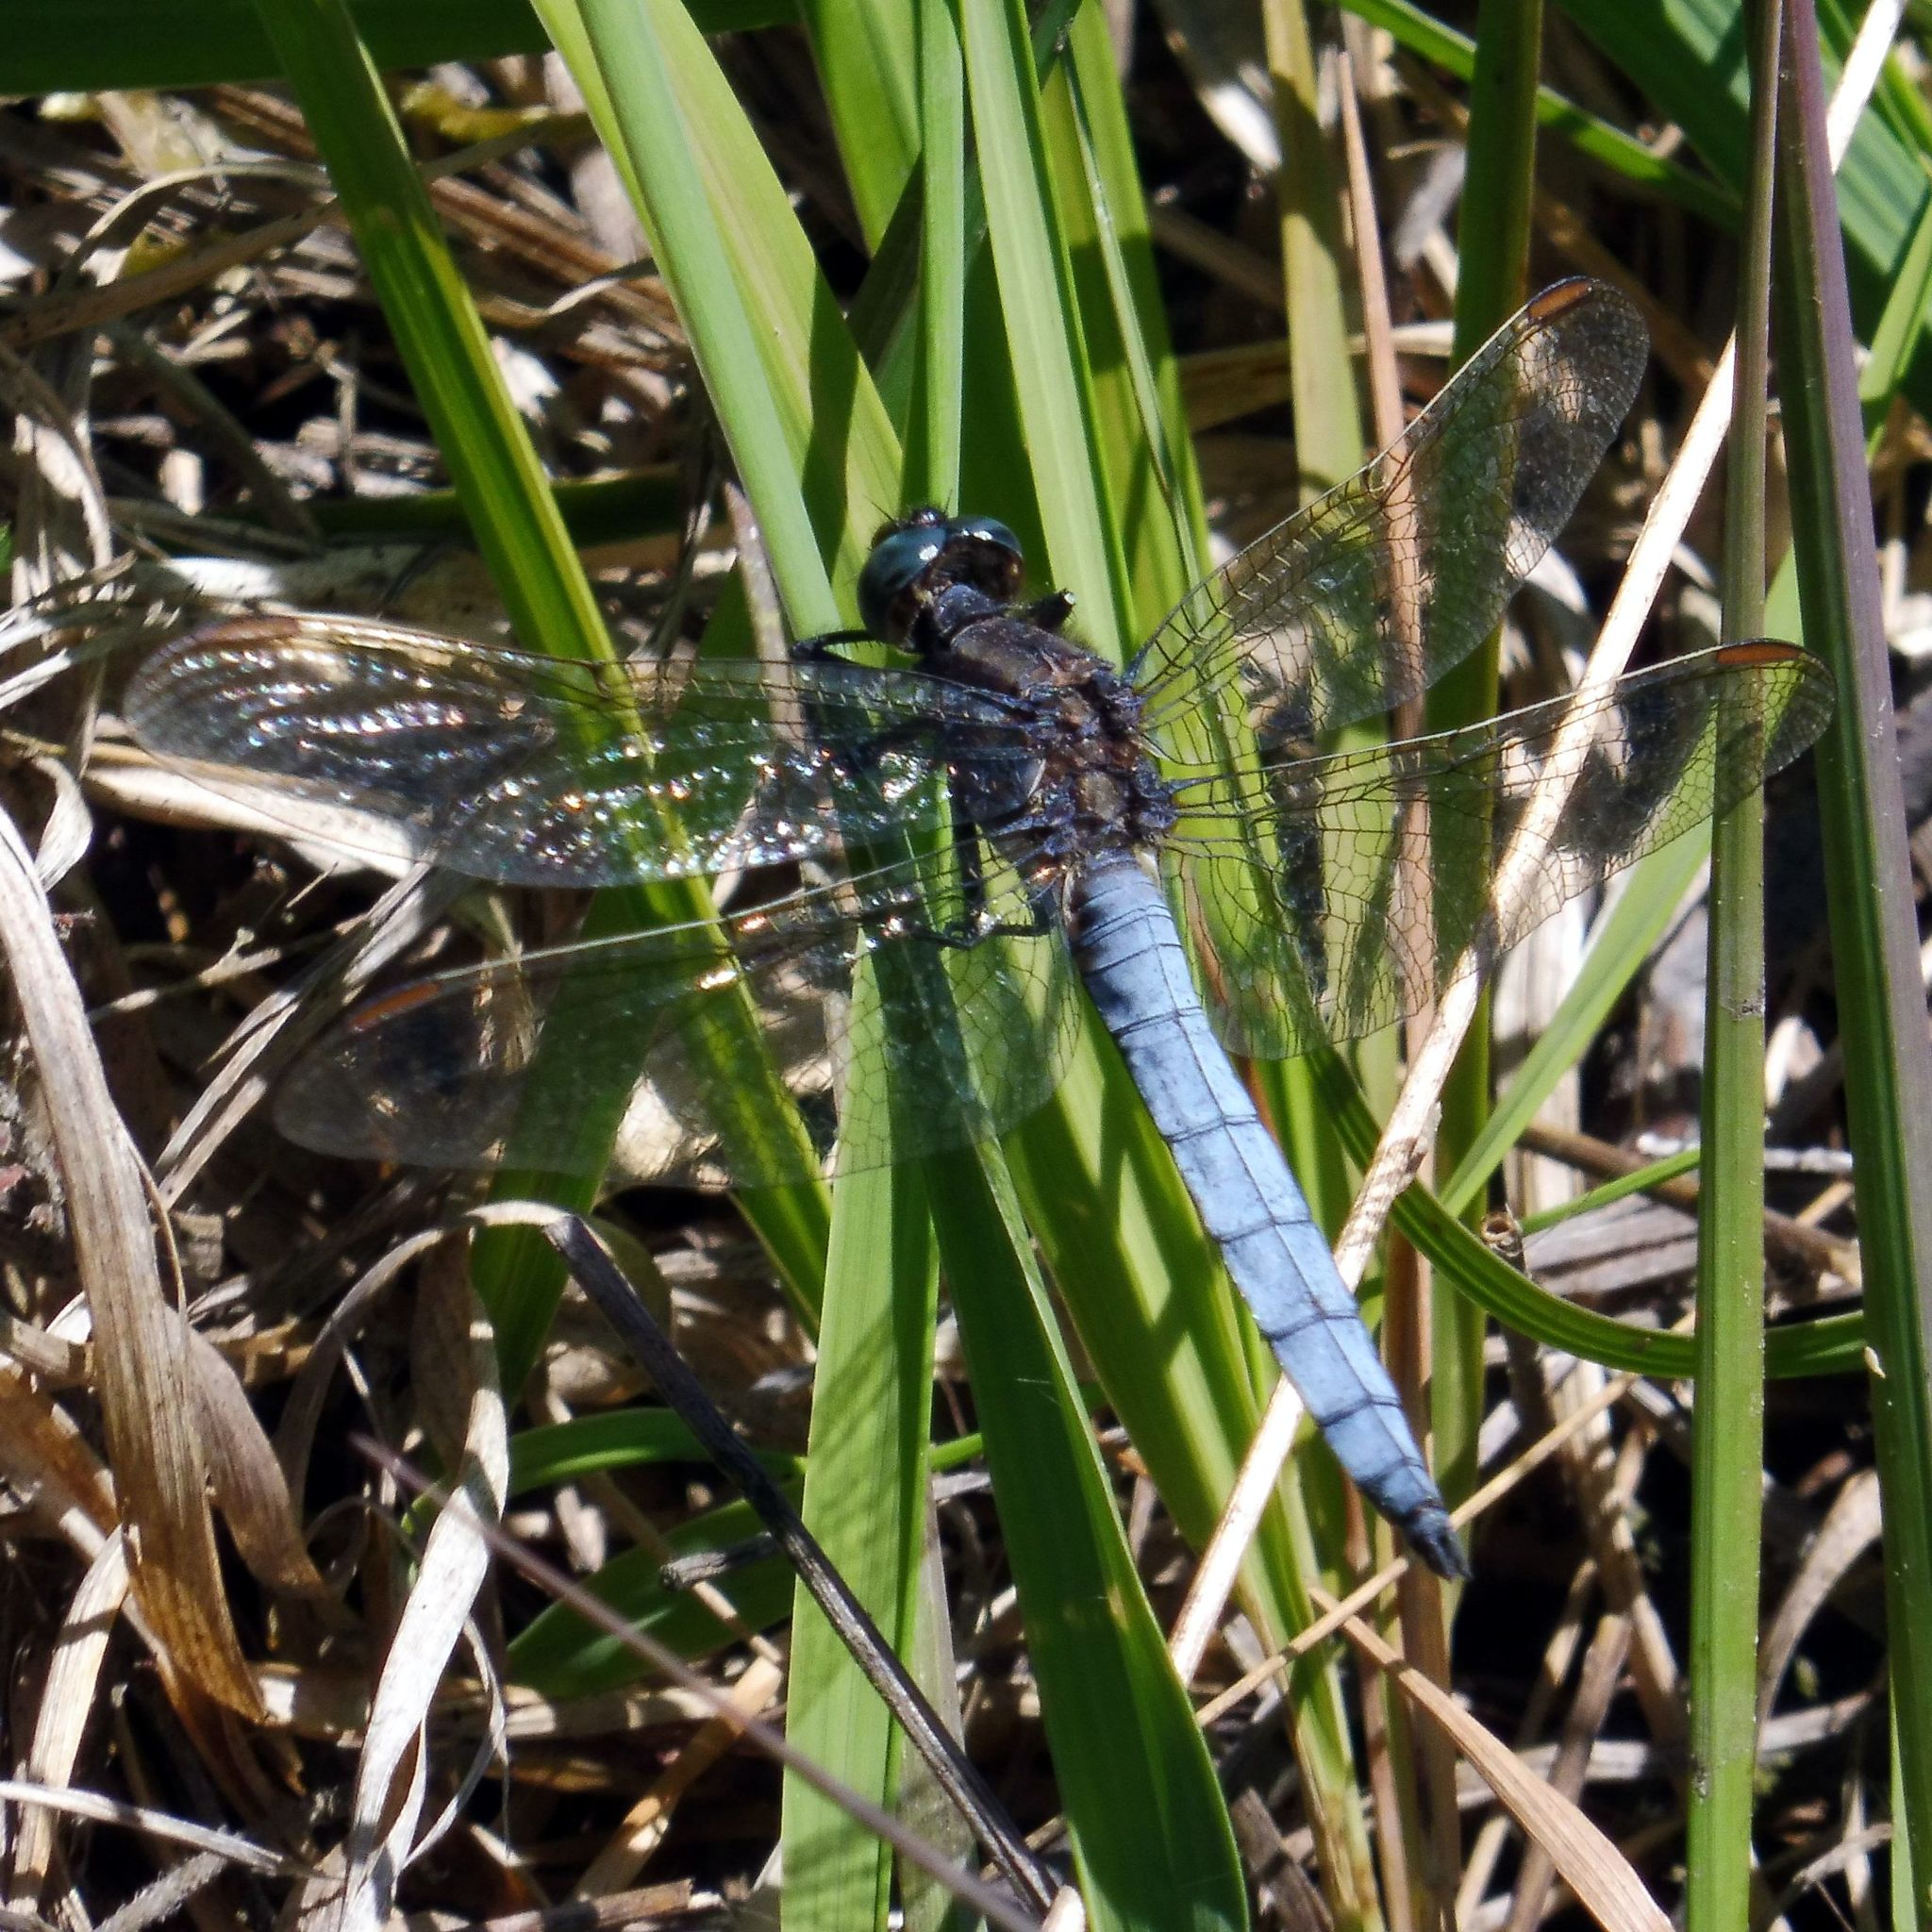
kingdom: Animalia
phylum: Arthropoda
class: Insecta
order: Odonata
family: Libellulidae
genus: Orthetrum
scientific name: Orthetrum coerulescens
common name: Keeled skimmer
